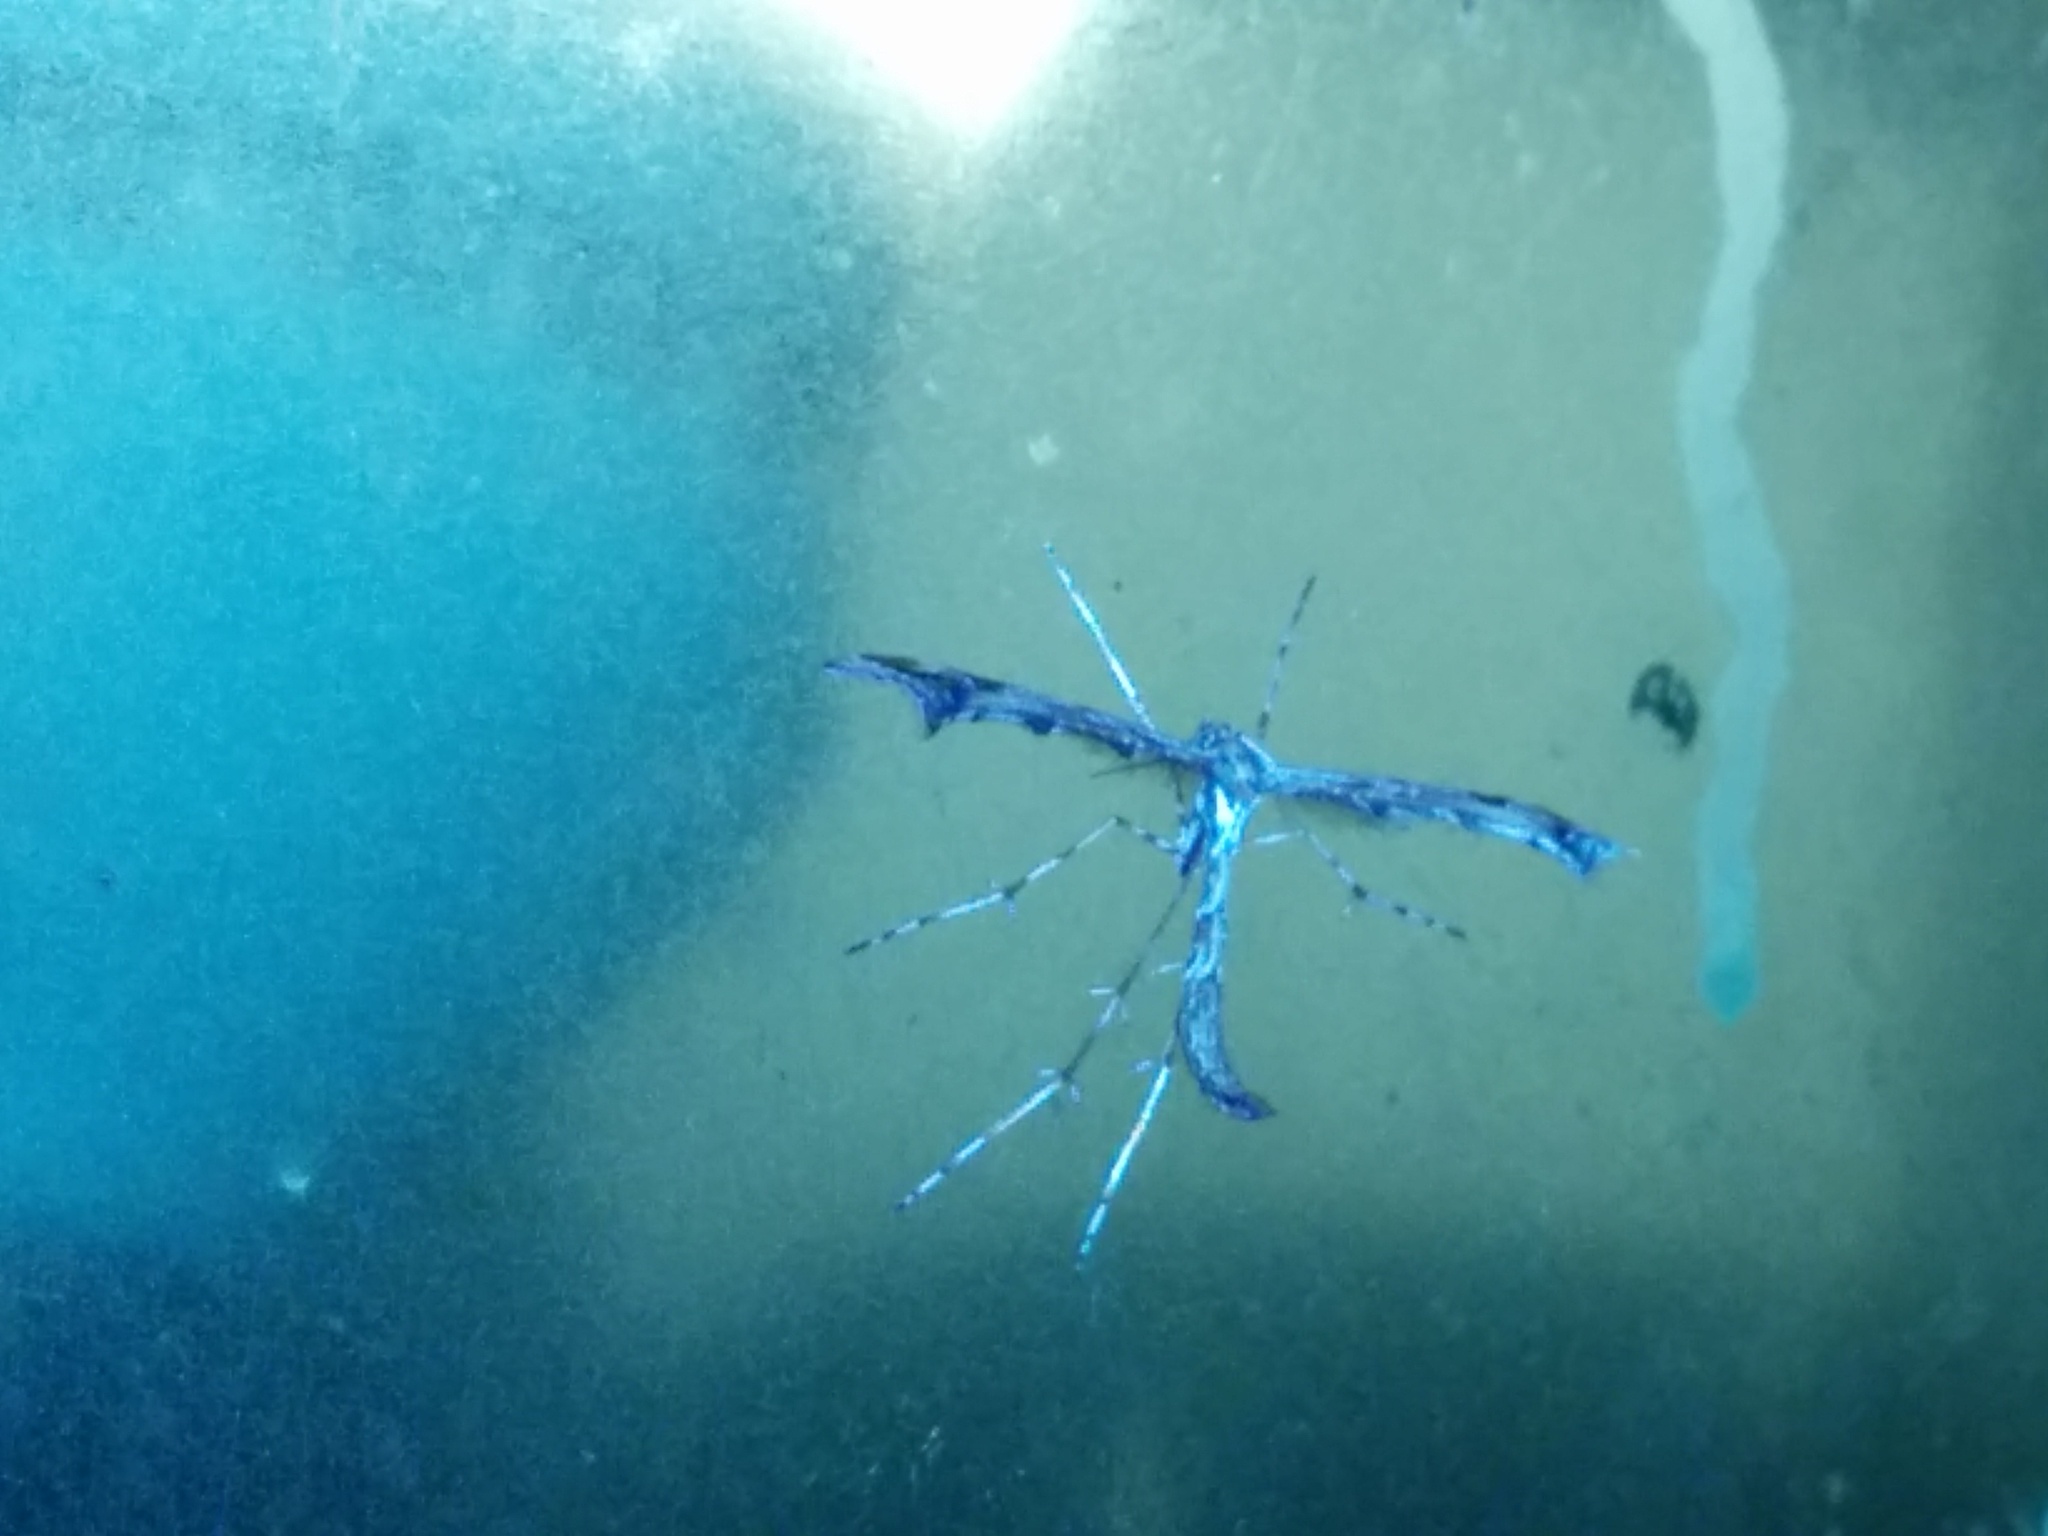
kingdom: Animalia
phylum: Arthropoda
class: Insecta
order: Lepidoptera
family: Pterophoridae
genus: Amblyptilia
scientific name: Amblyptilia acanthadactyla
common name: Beautiful plume
